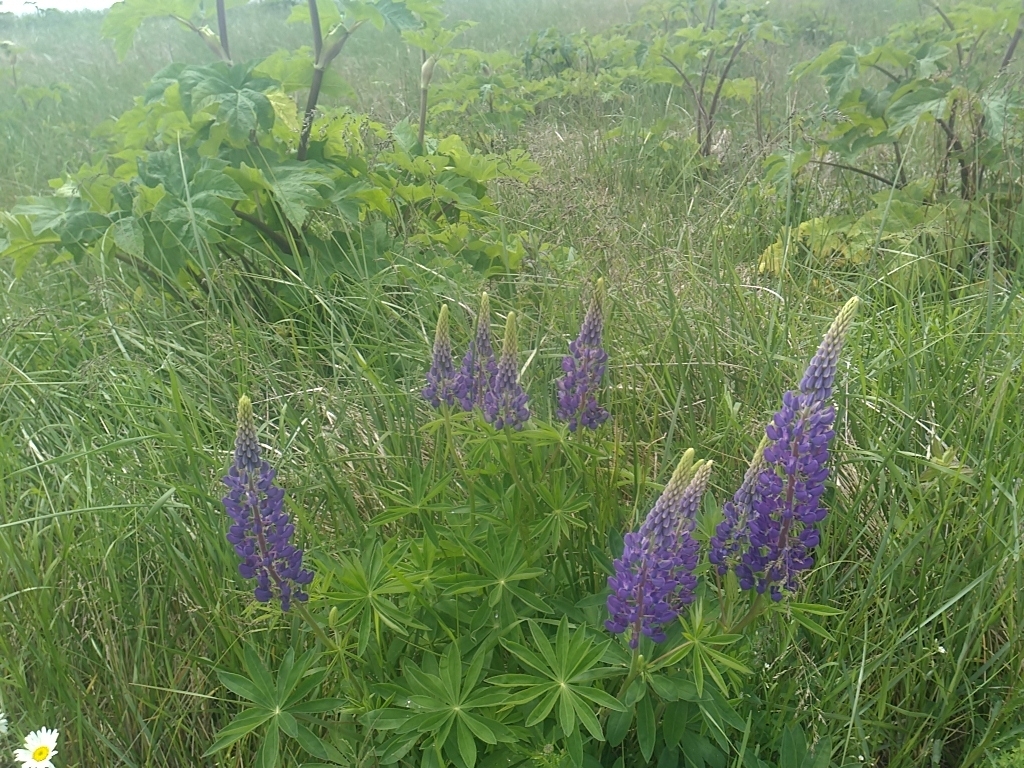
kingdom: Plantae
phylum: Tracheophyta
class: Magnoliopsida
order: Fabales
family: Fabaceae
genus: Lupinus
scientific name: Lupinus polyphyllus
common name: Garden lupin
